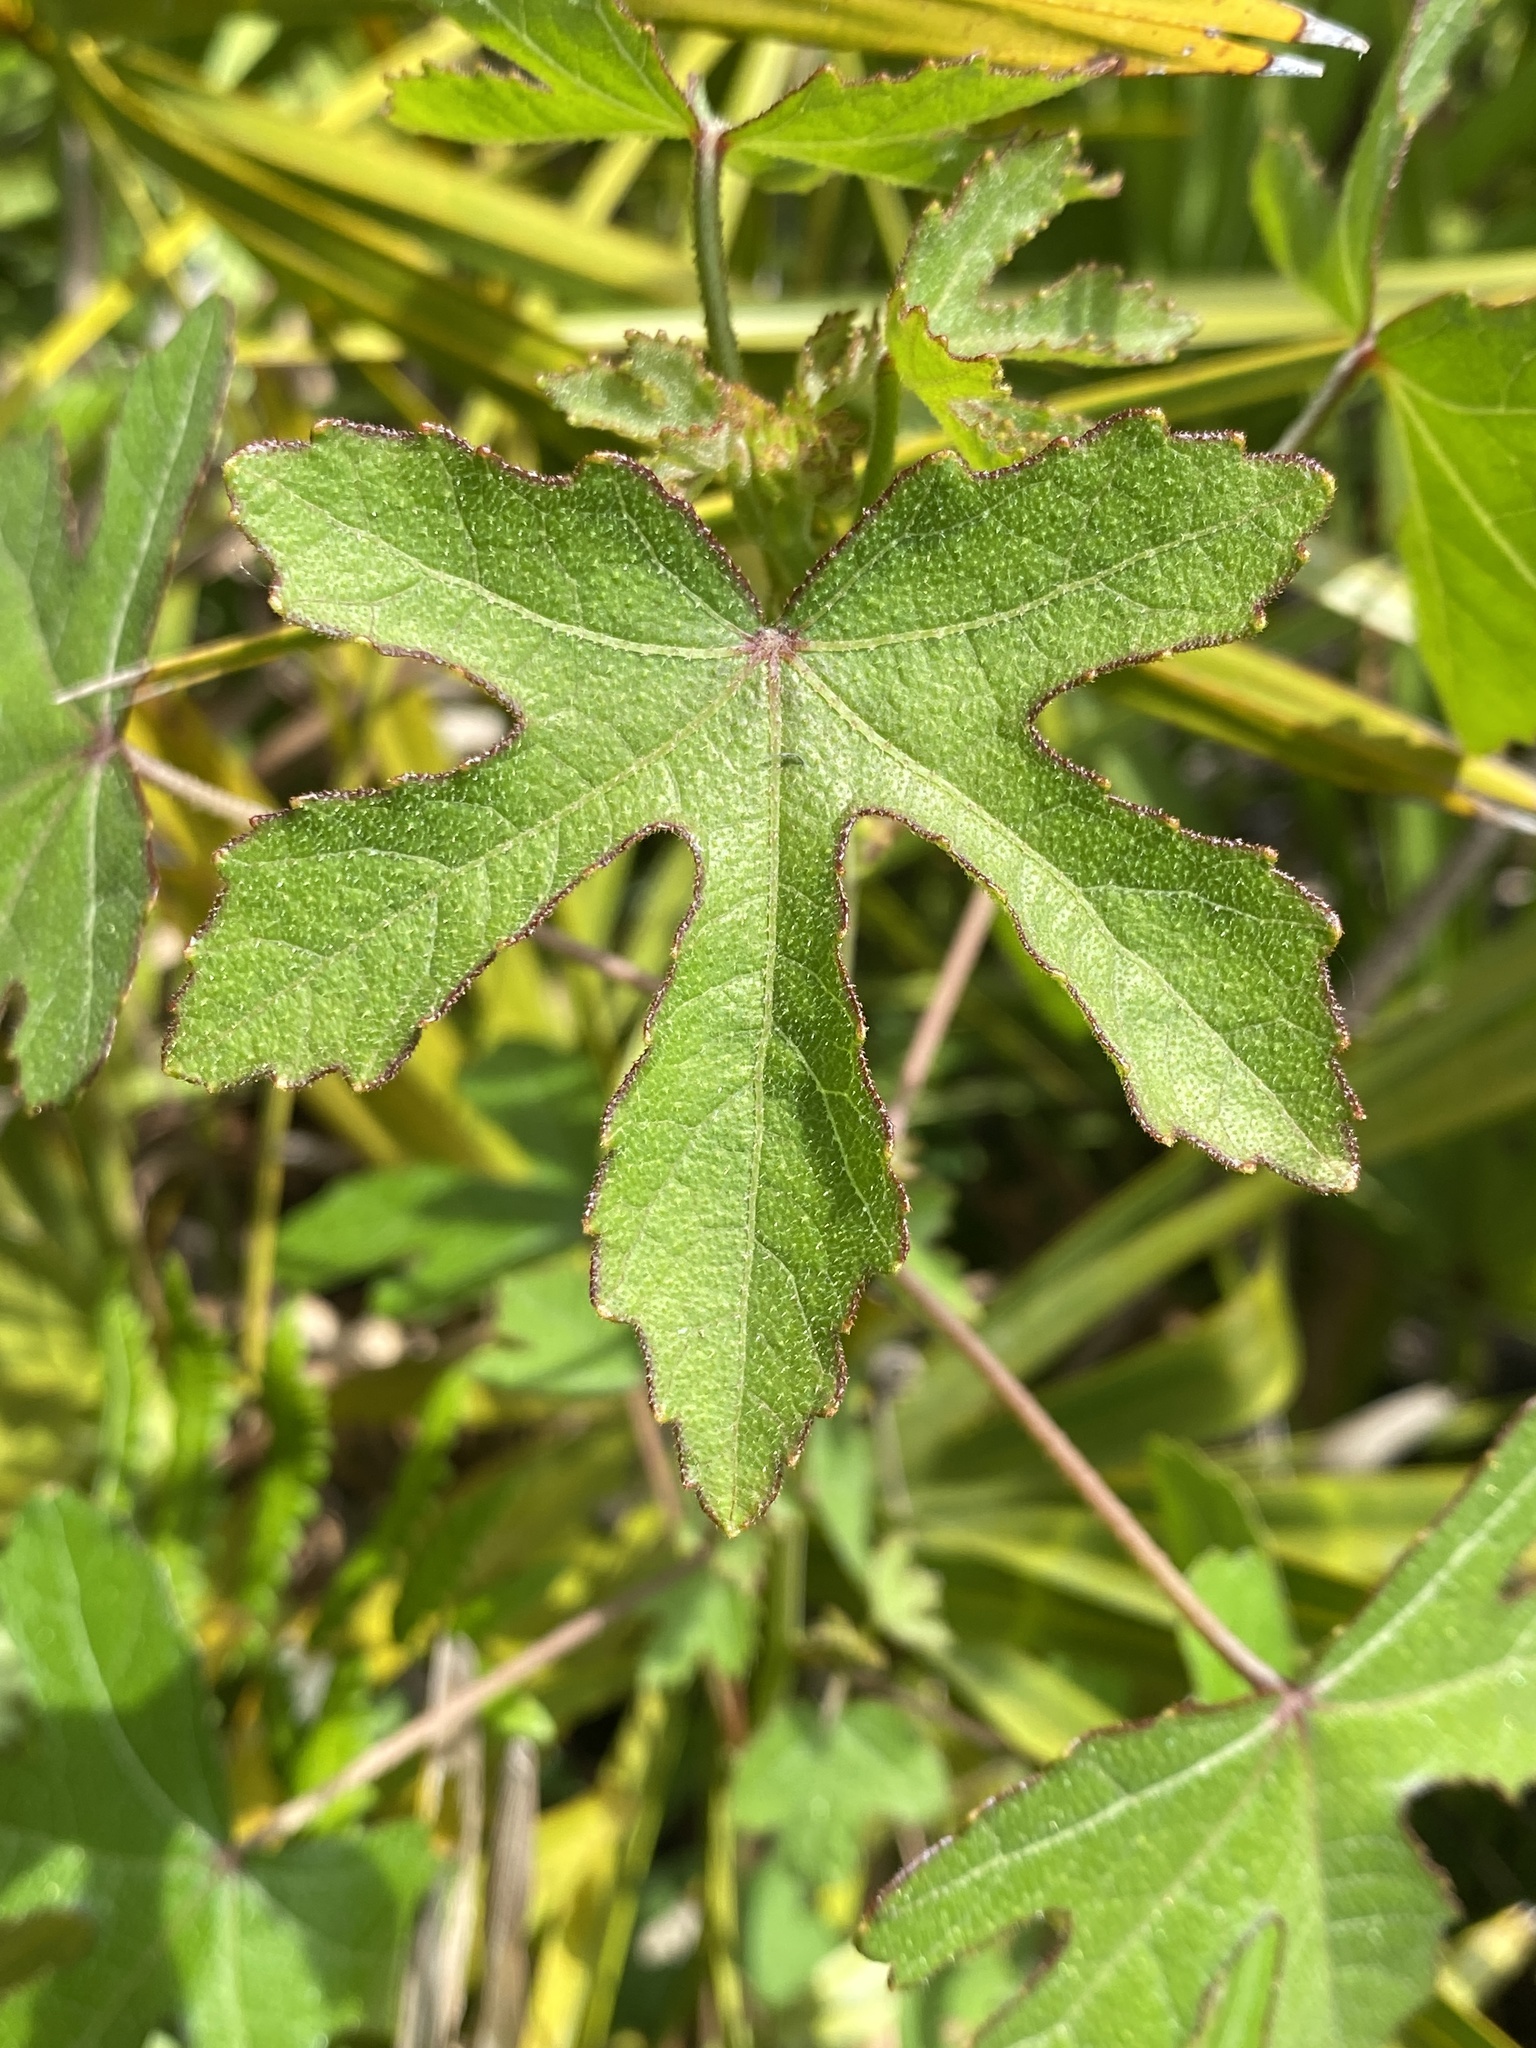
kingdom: Plantae
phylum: Tracheophyta
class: Magnoliopsida
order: Malvales
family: Malvaceae
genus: Hibiscus
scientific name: Hibiscus aculeatus
